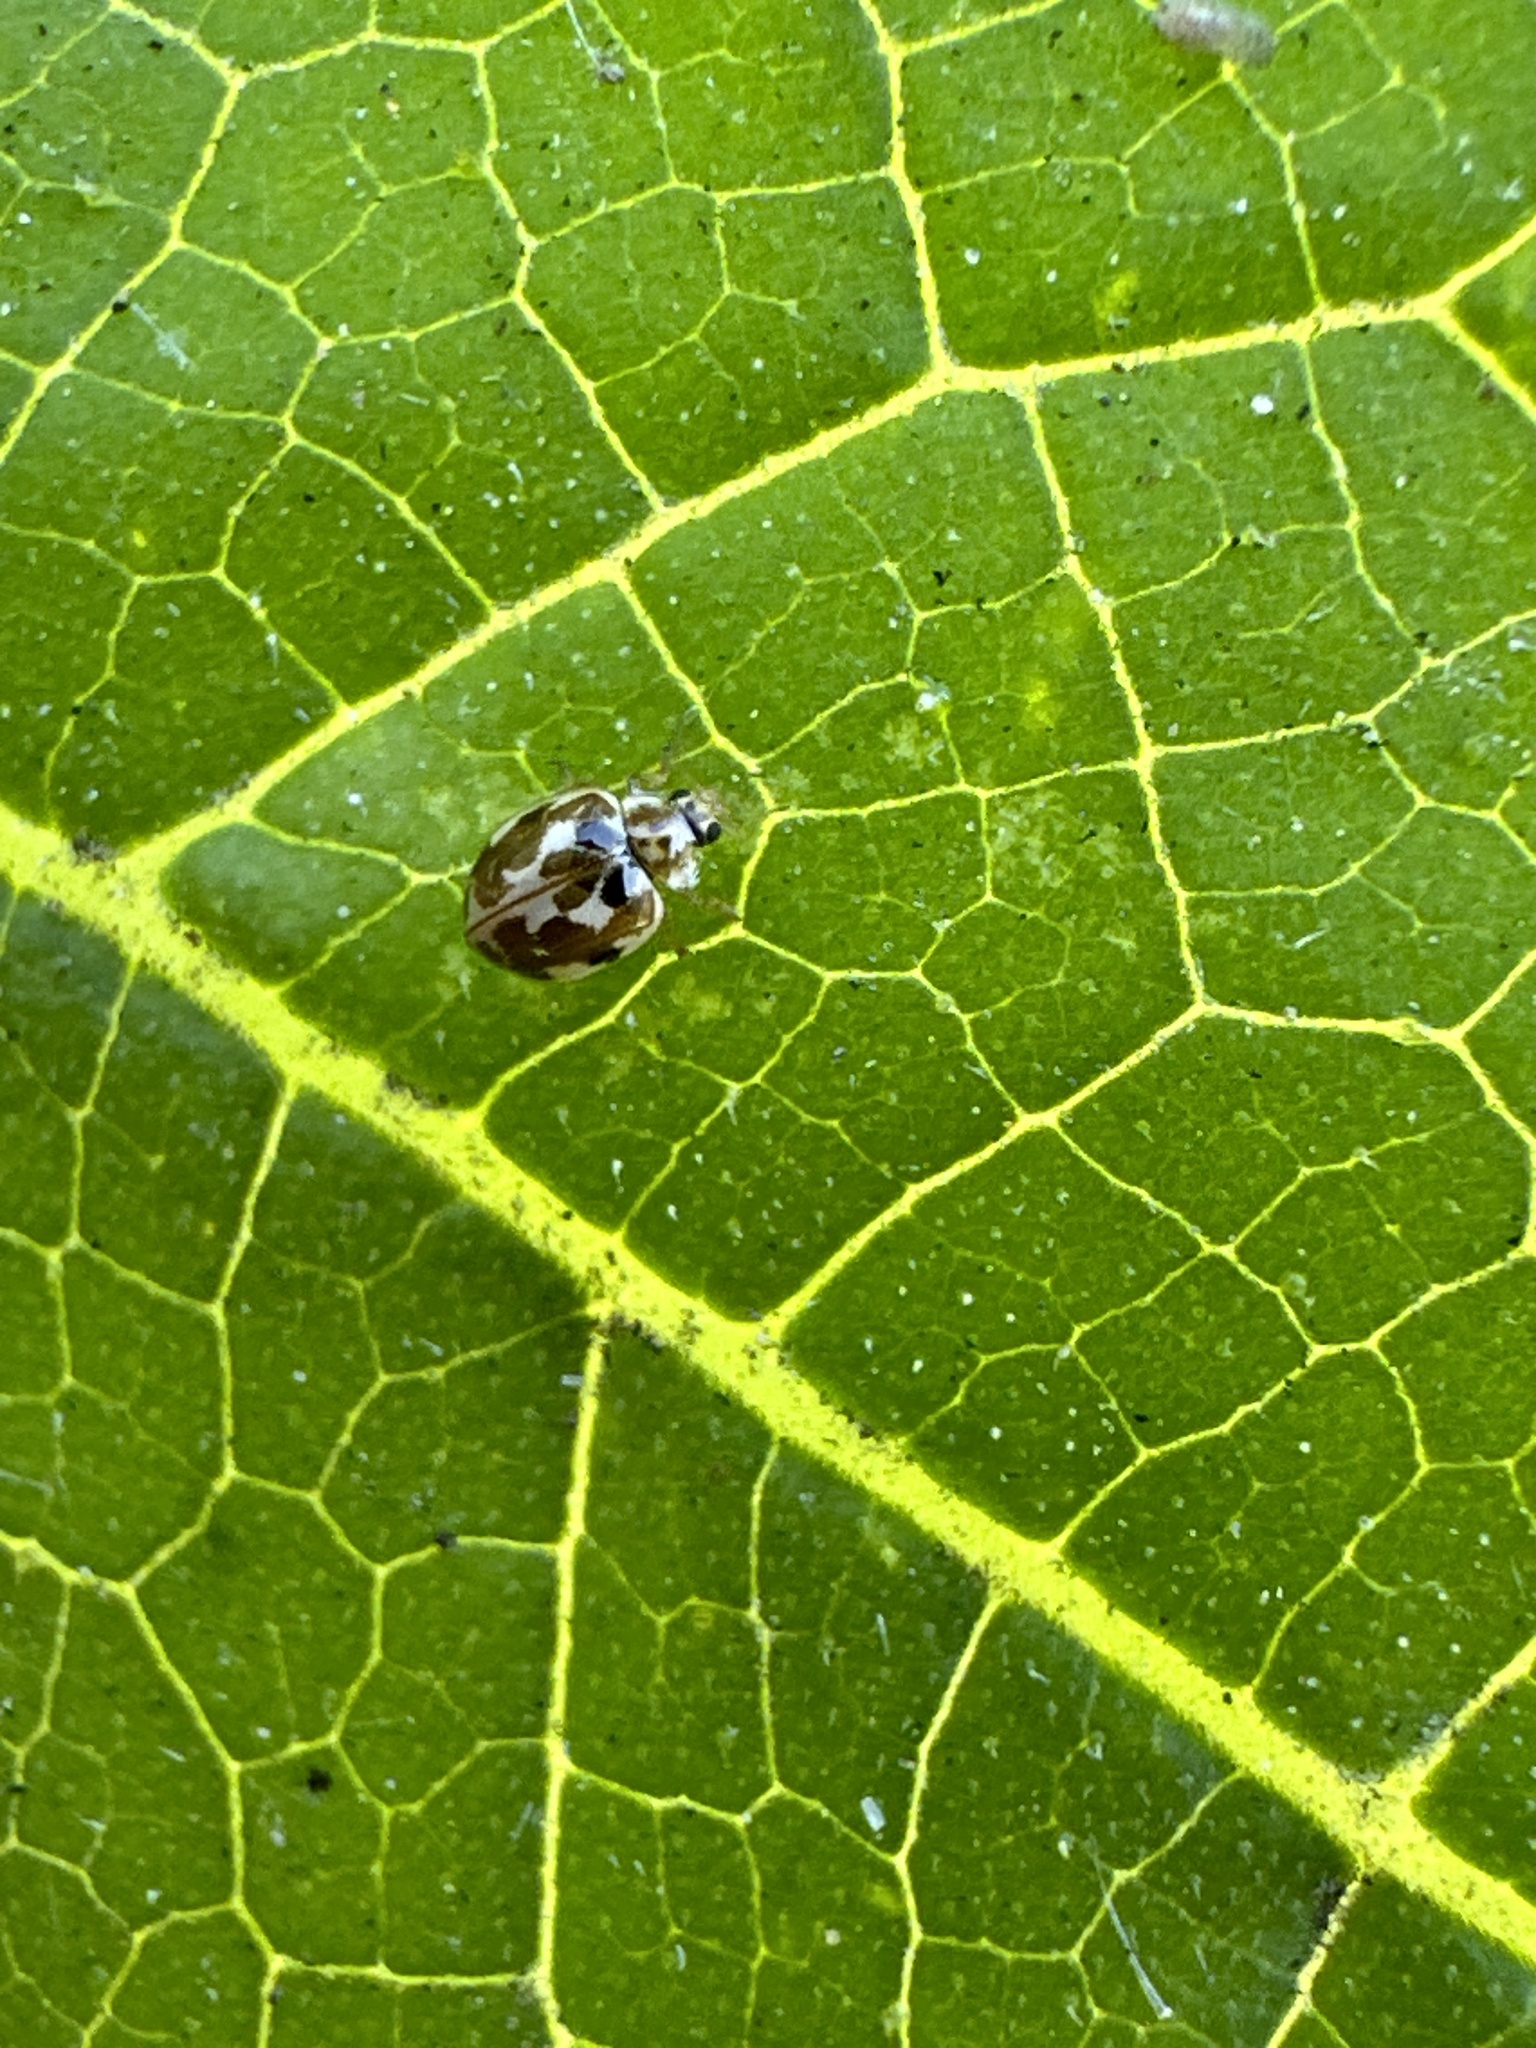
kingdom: Animalia
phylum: Arthropoda
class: Insecta
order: Coleoptera
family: Coccinellidae
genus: Psyllobora
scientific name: Psyllobora vigintimaculata
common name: Ladybird beetle
